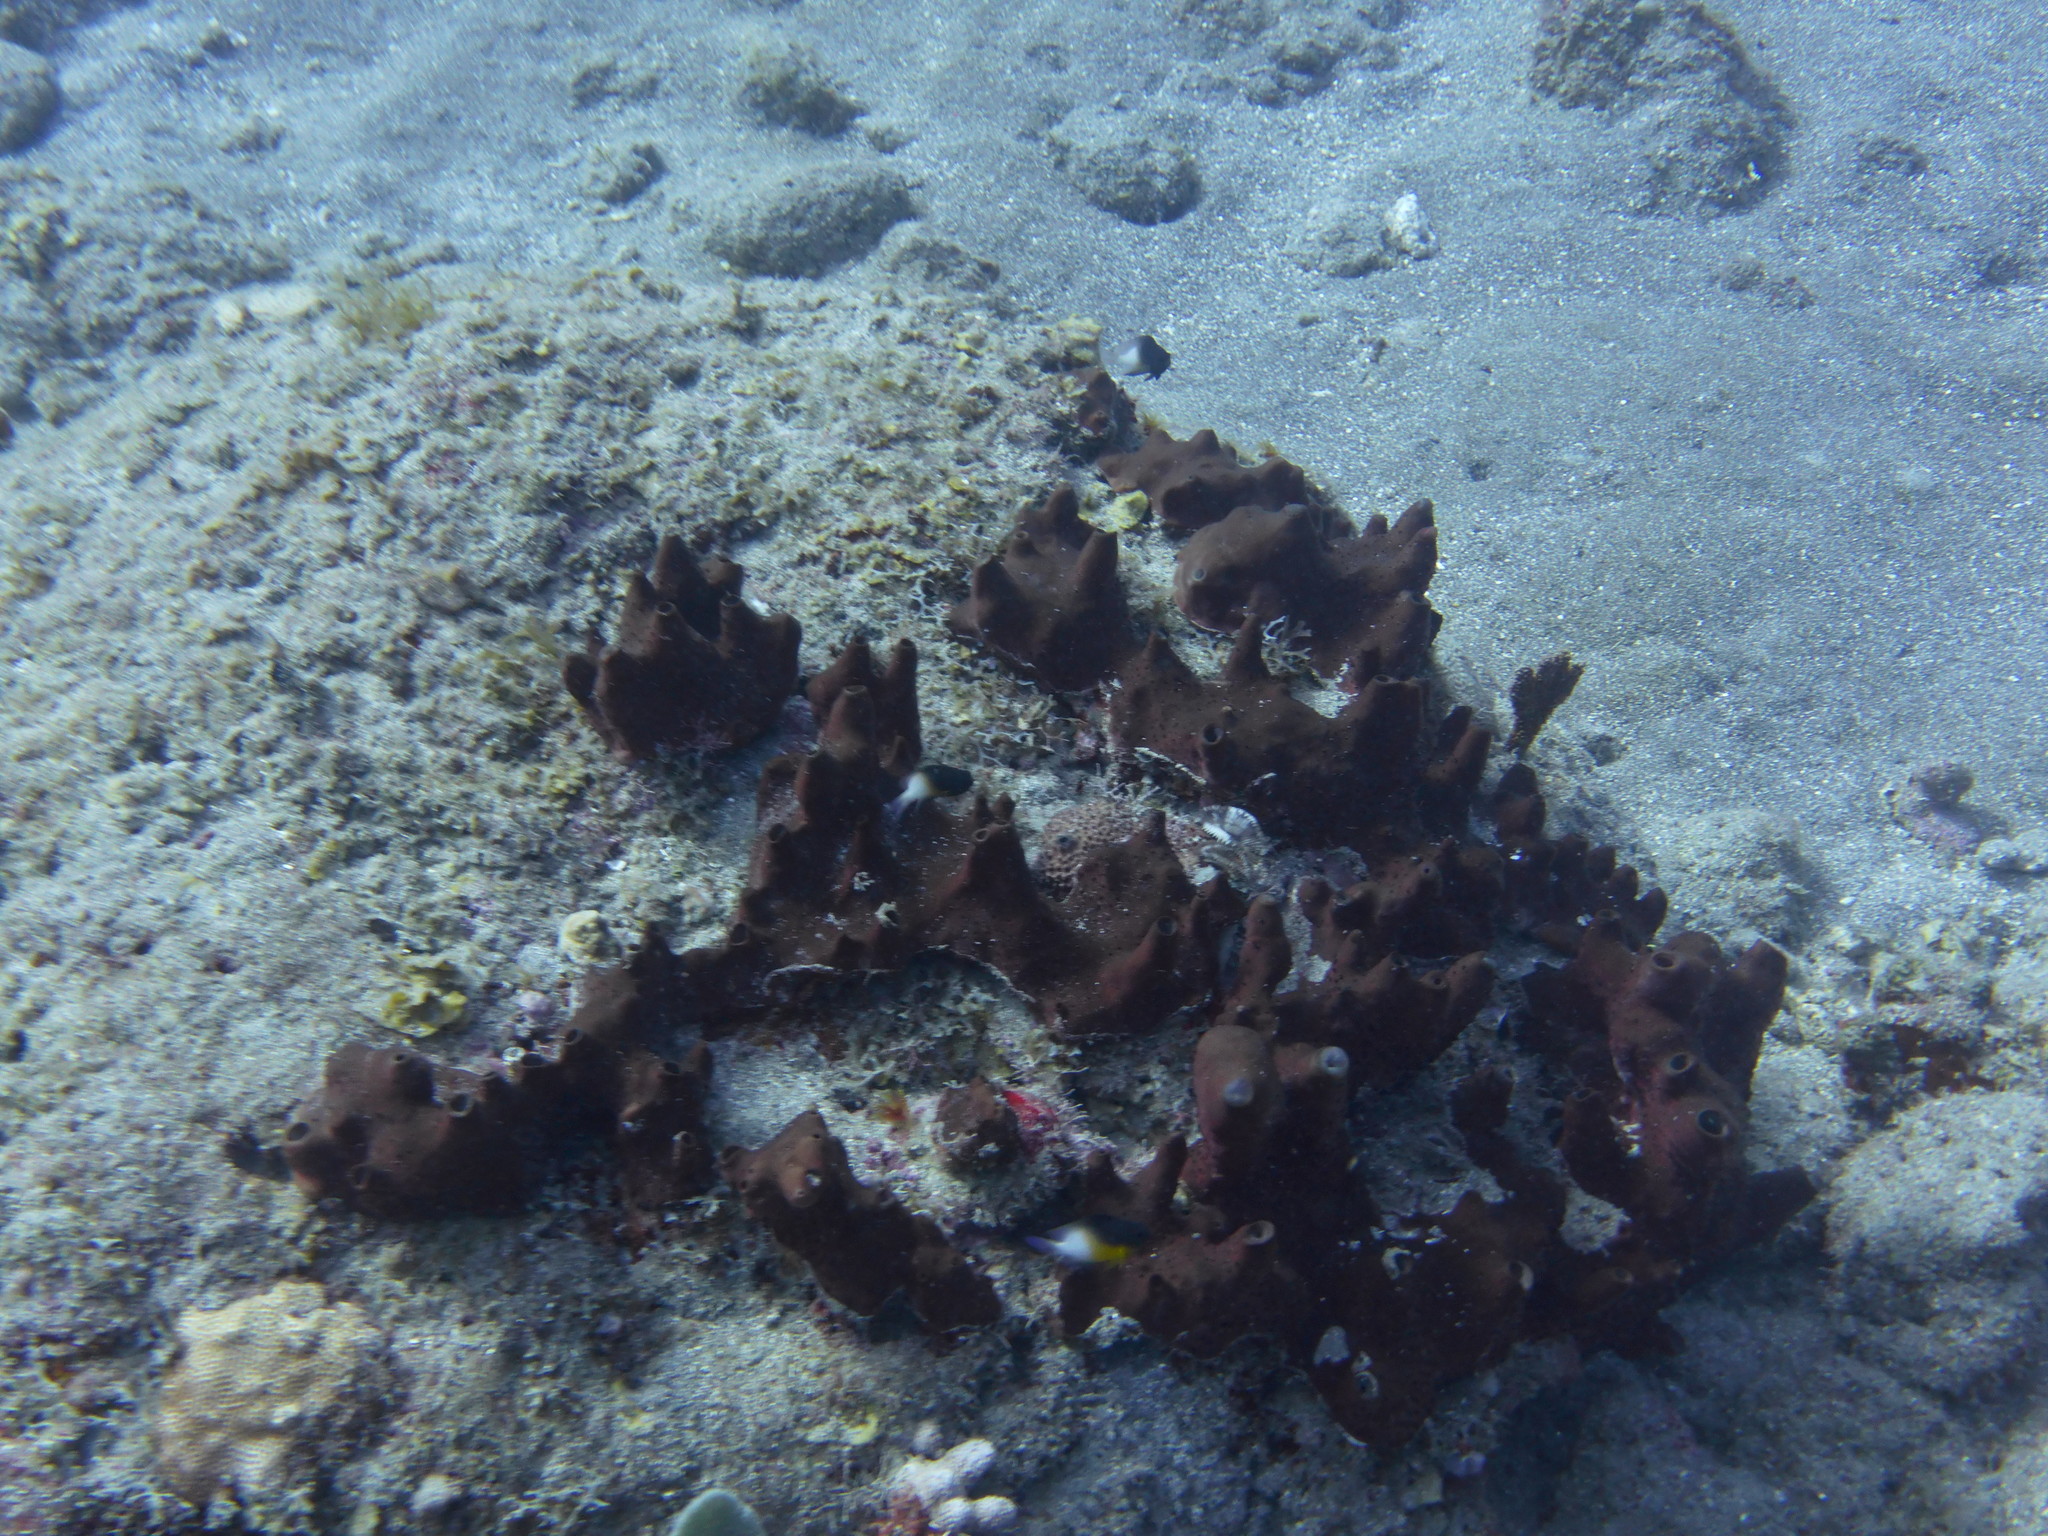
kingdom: Animalia
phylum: Porifera
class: Demospongiae
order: Scopalinida
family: Scopalinidae
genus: Svenzea
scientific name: Svenzea zeai
